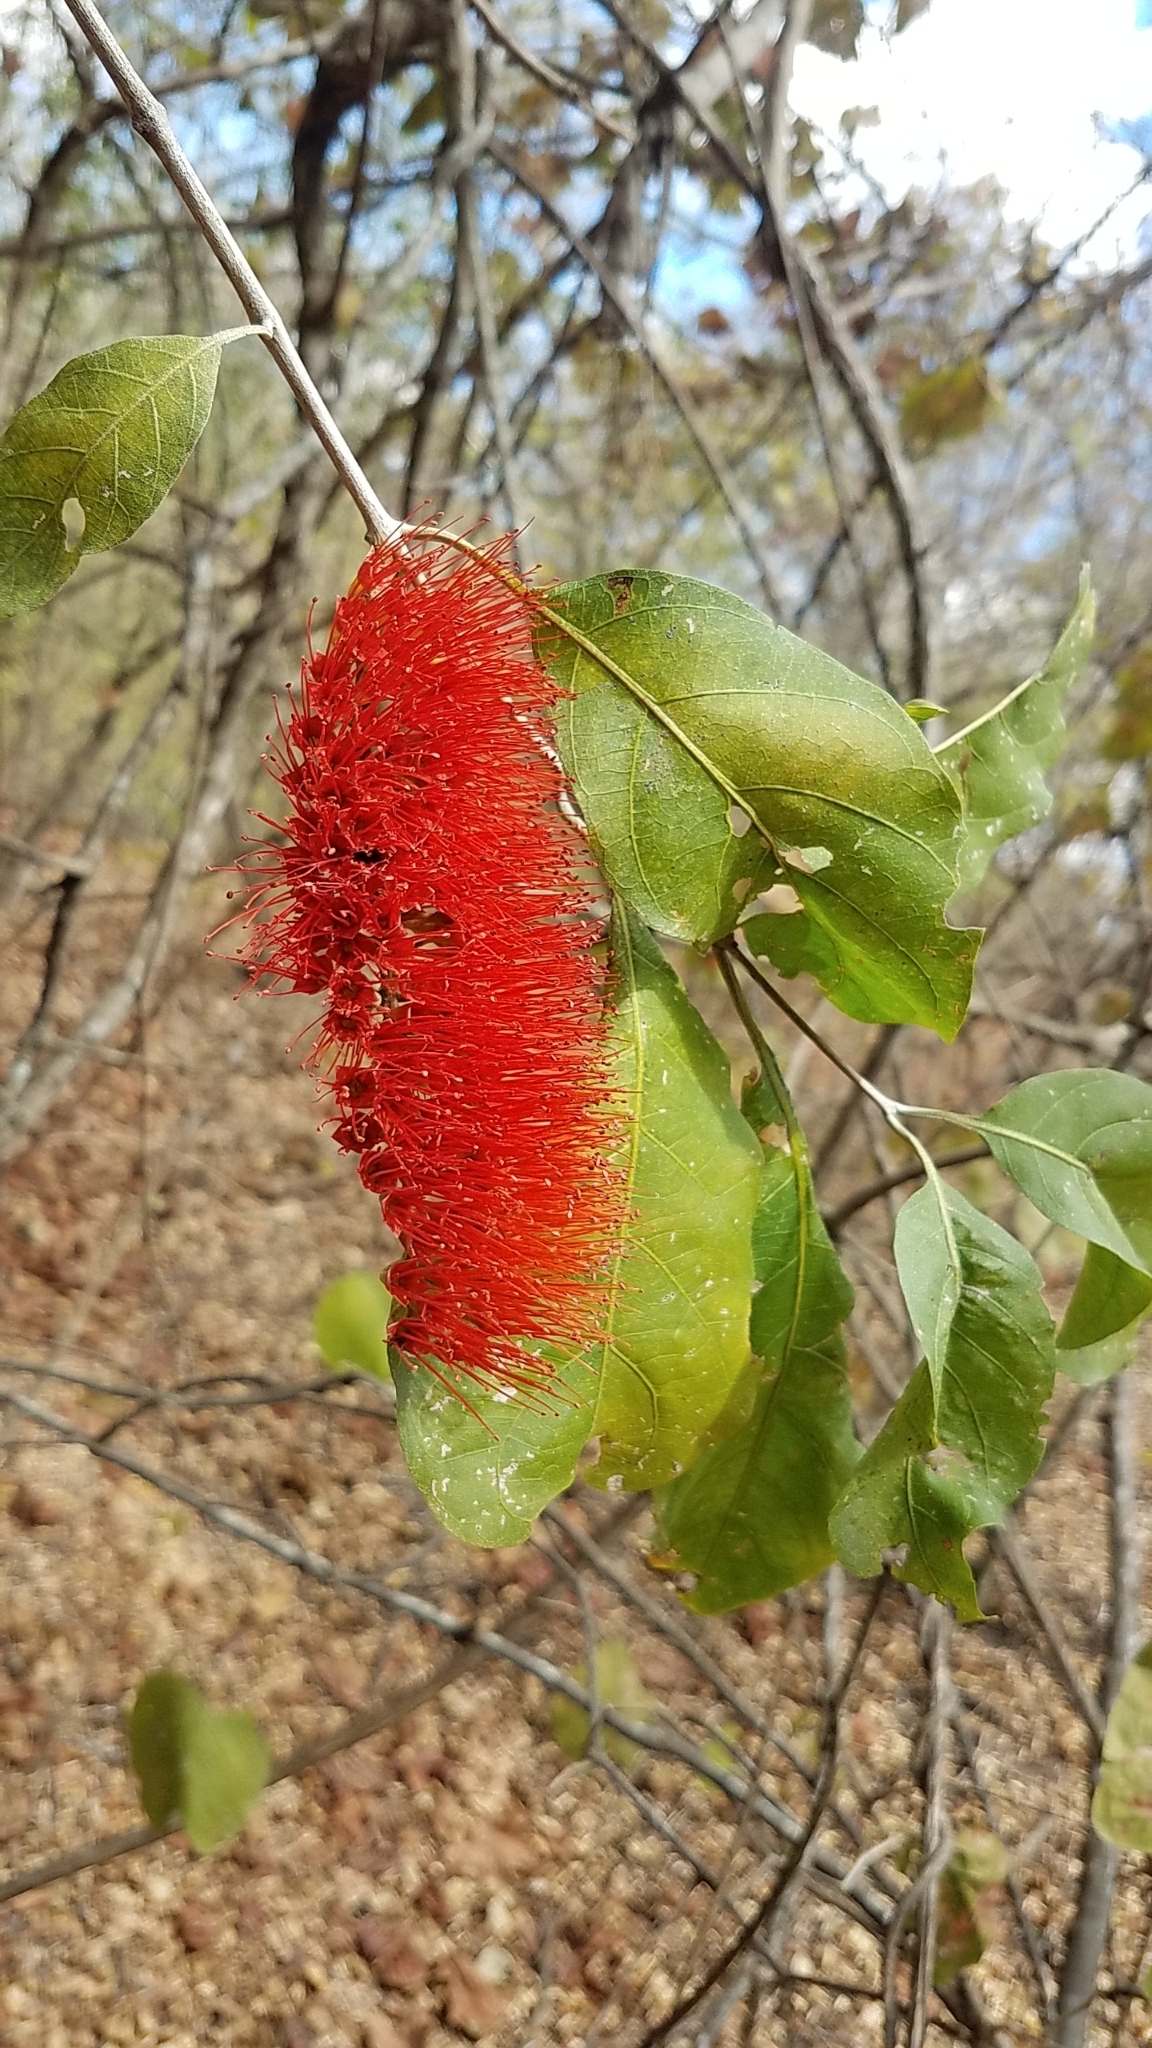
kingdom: Plantae
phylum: Tracheophyta
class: Magnoliopsida
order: Myrtales
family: Combretaceae
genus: Combretum
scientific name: Combretum farinosum
